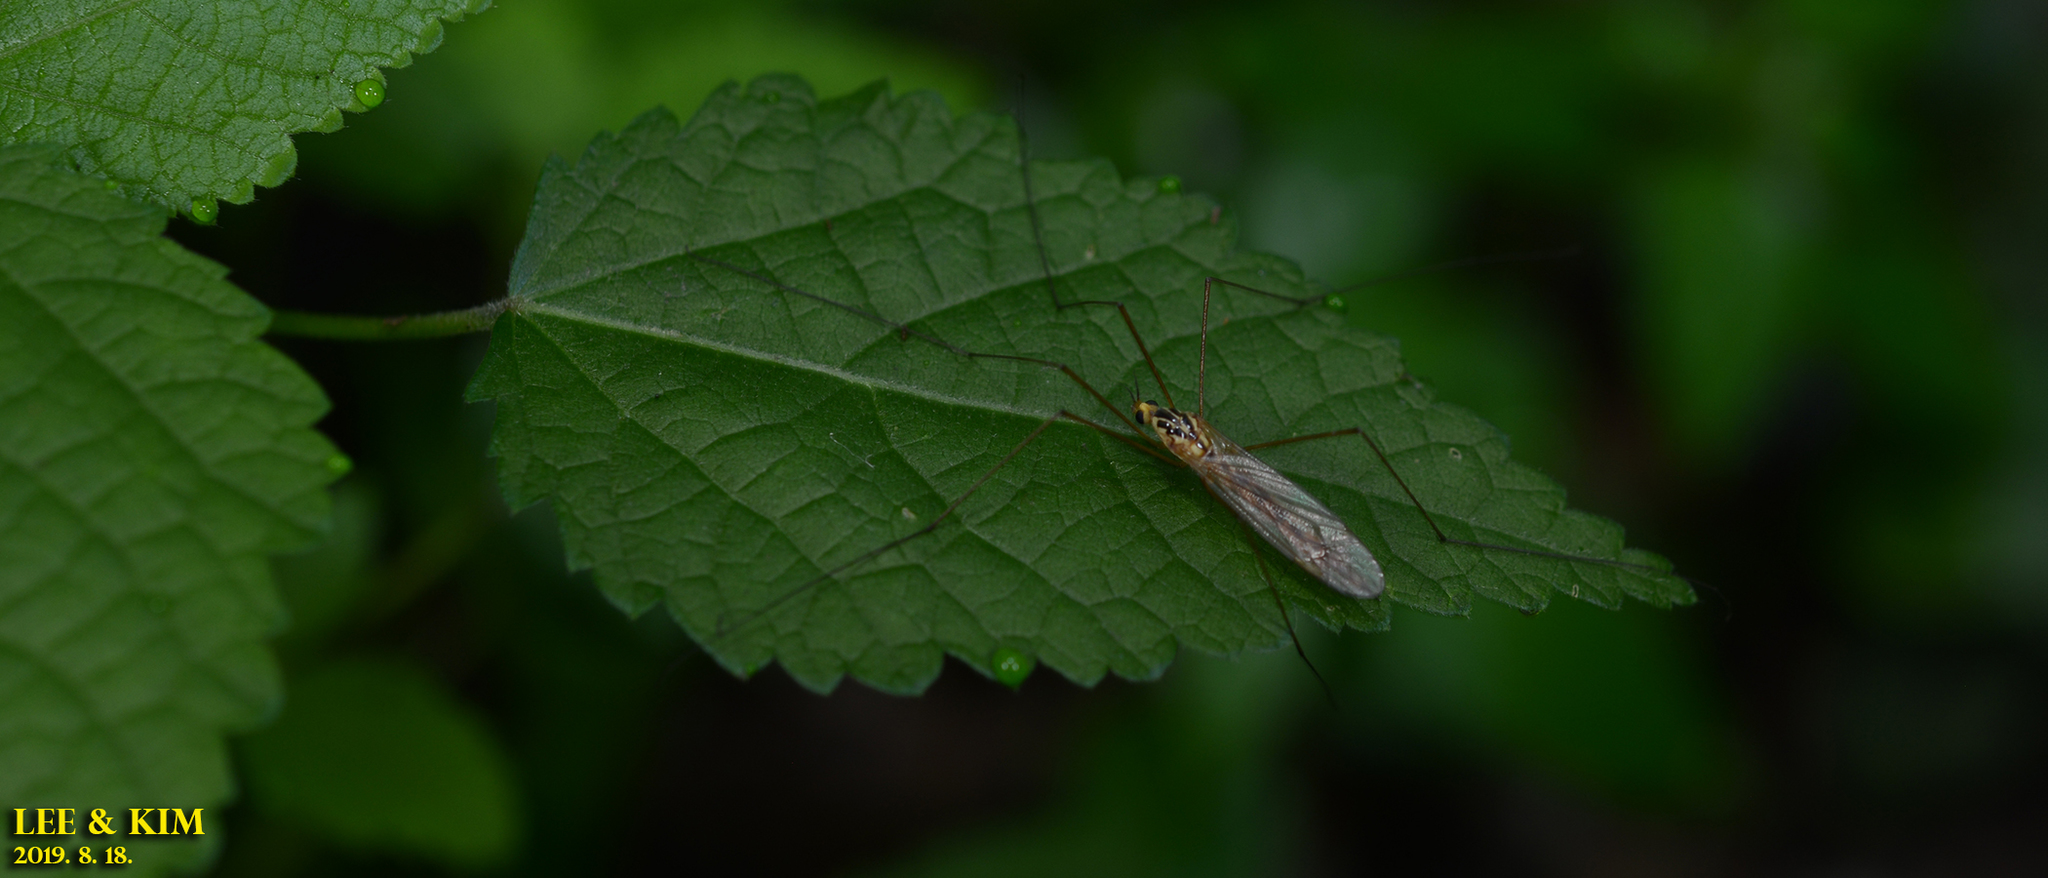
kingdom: Animalia
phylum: Arthropoda
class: Insecta
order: Diptera
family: Tipulidae
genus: Nephrotoma
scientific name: Nephrotoma virgata
